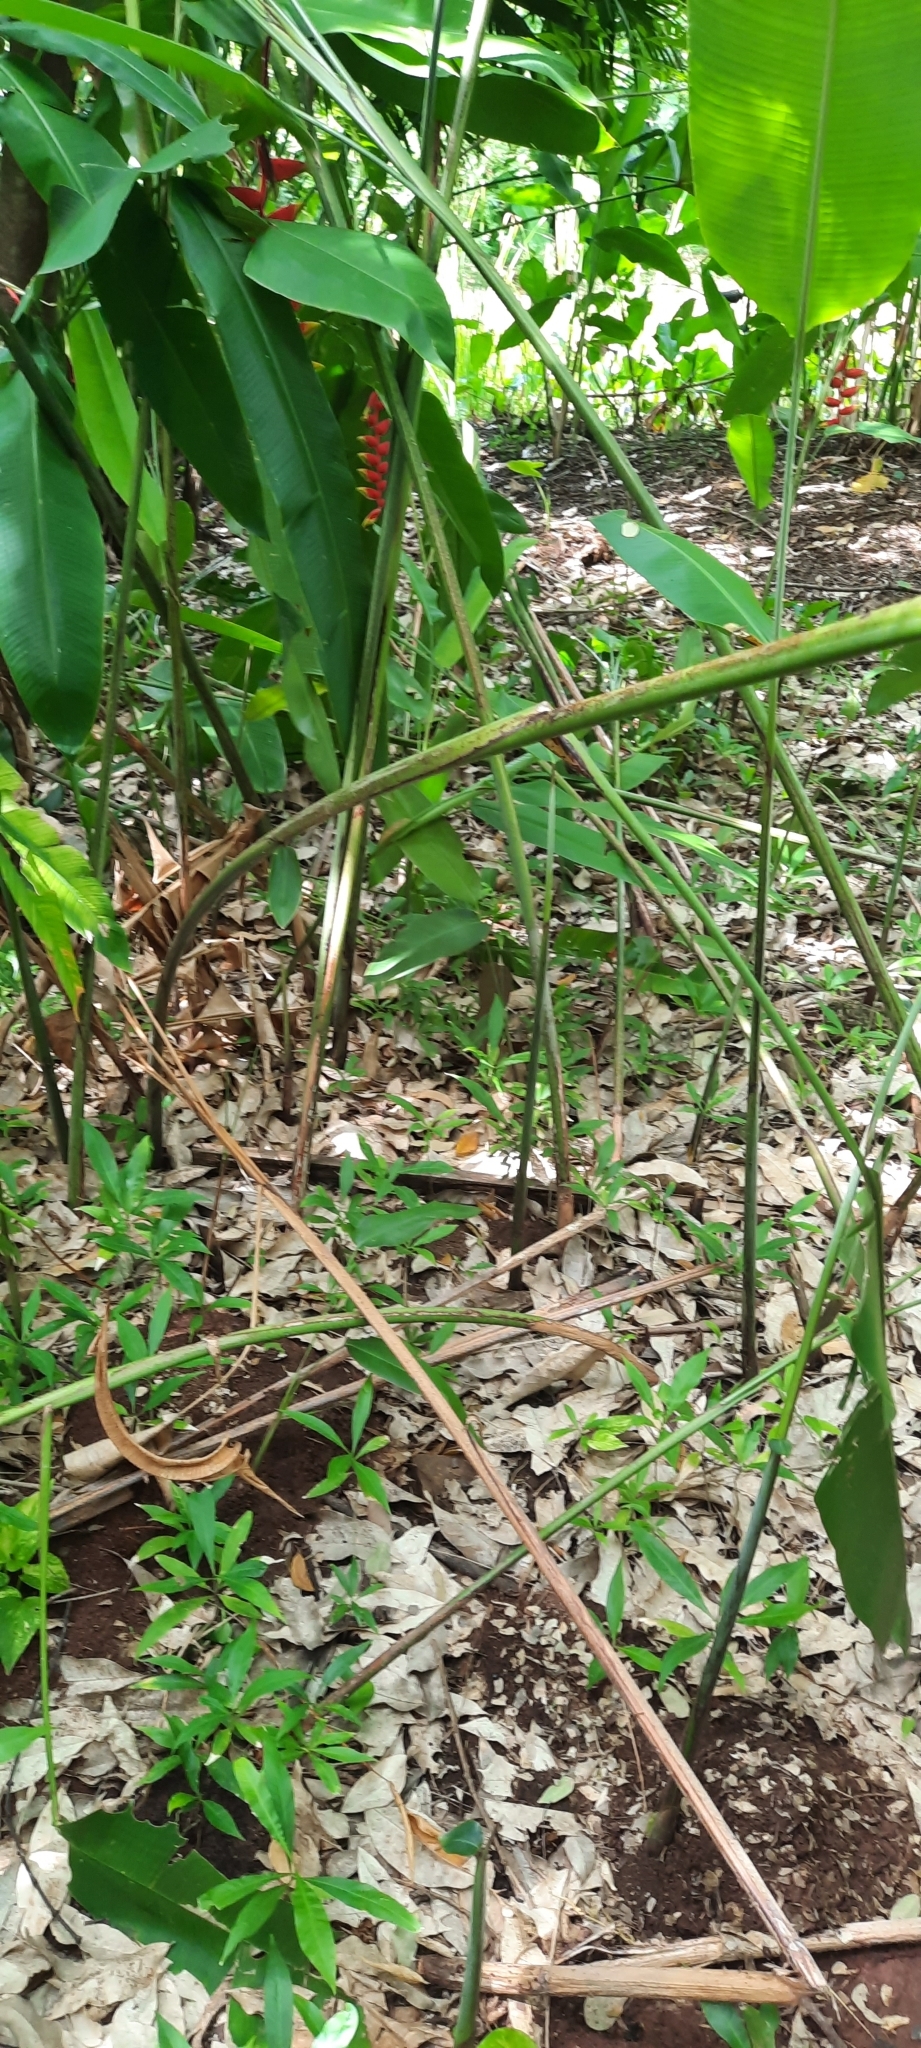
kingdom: Plantae
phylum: Tracheophyta
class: Liliopsida
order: Zingiberales
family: Heliconiaceae
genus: Heliconia
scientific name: Heliconia rostrata
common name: False bird of paradise
